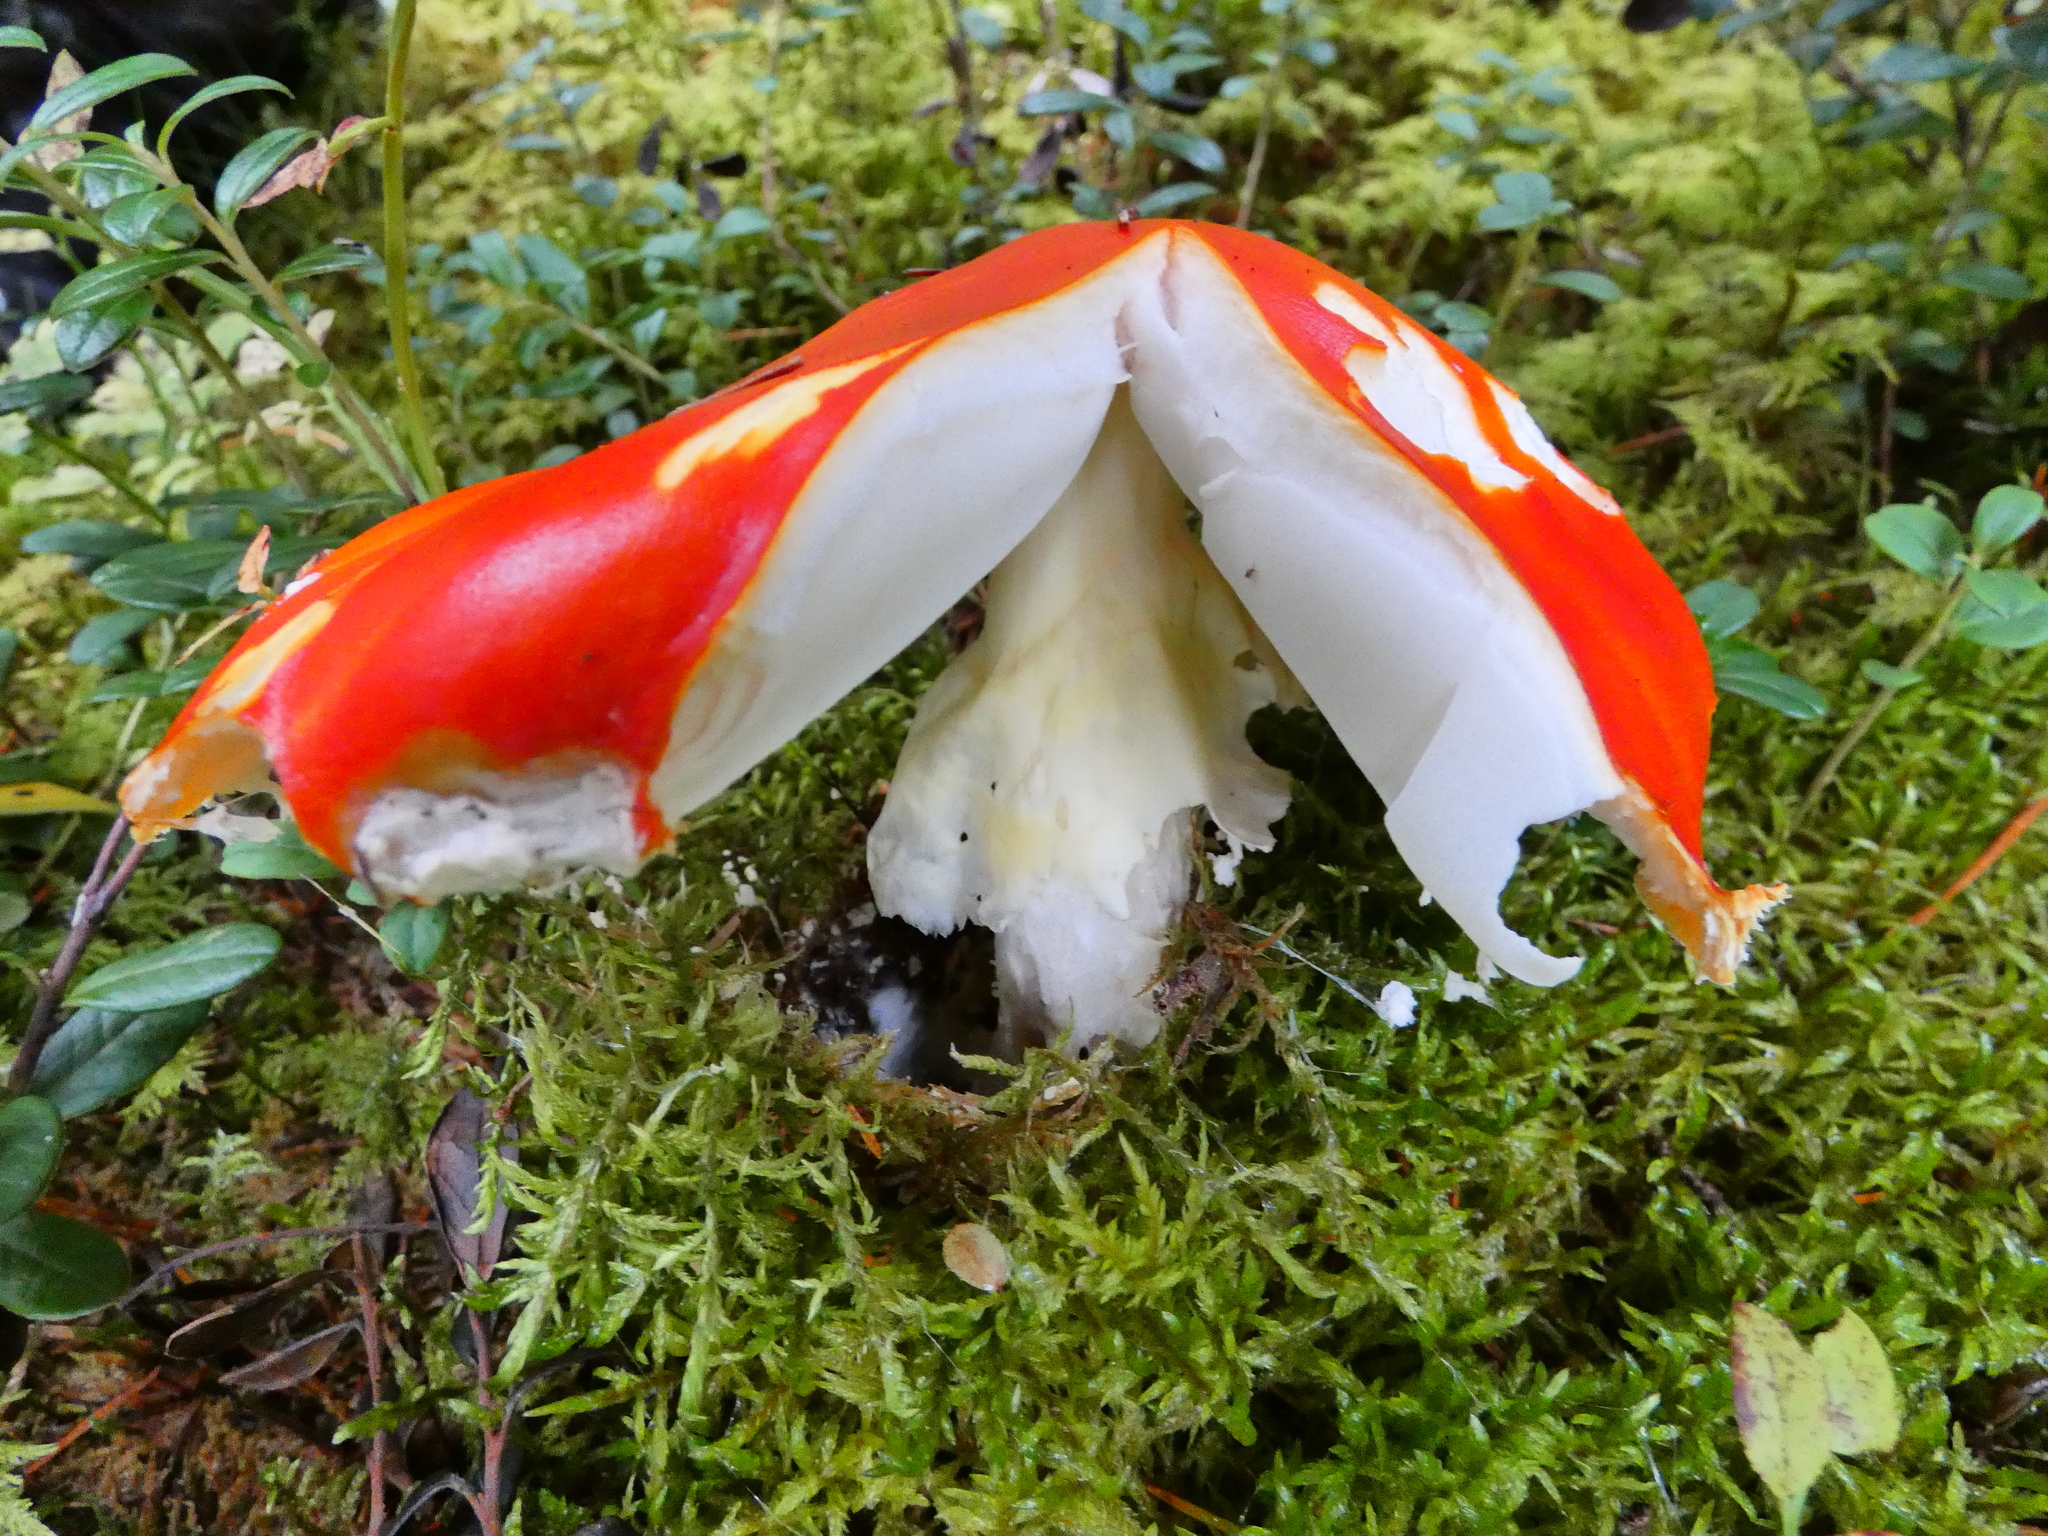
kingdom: Fungi
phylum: Basidiomycota
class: Agaricomycetes
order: Agaricales
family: Amanitaceae
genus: Amanita
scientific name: Amanita muscaria
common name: Fly agaric
